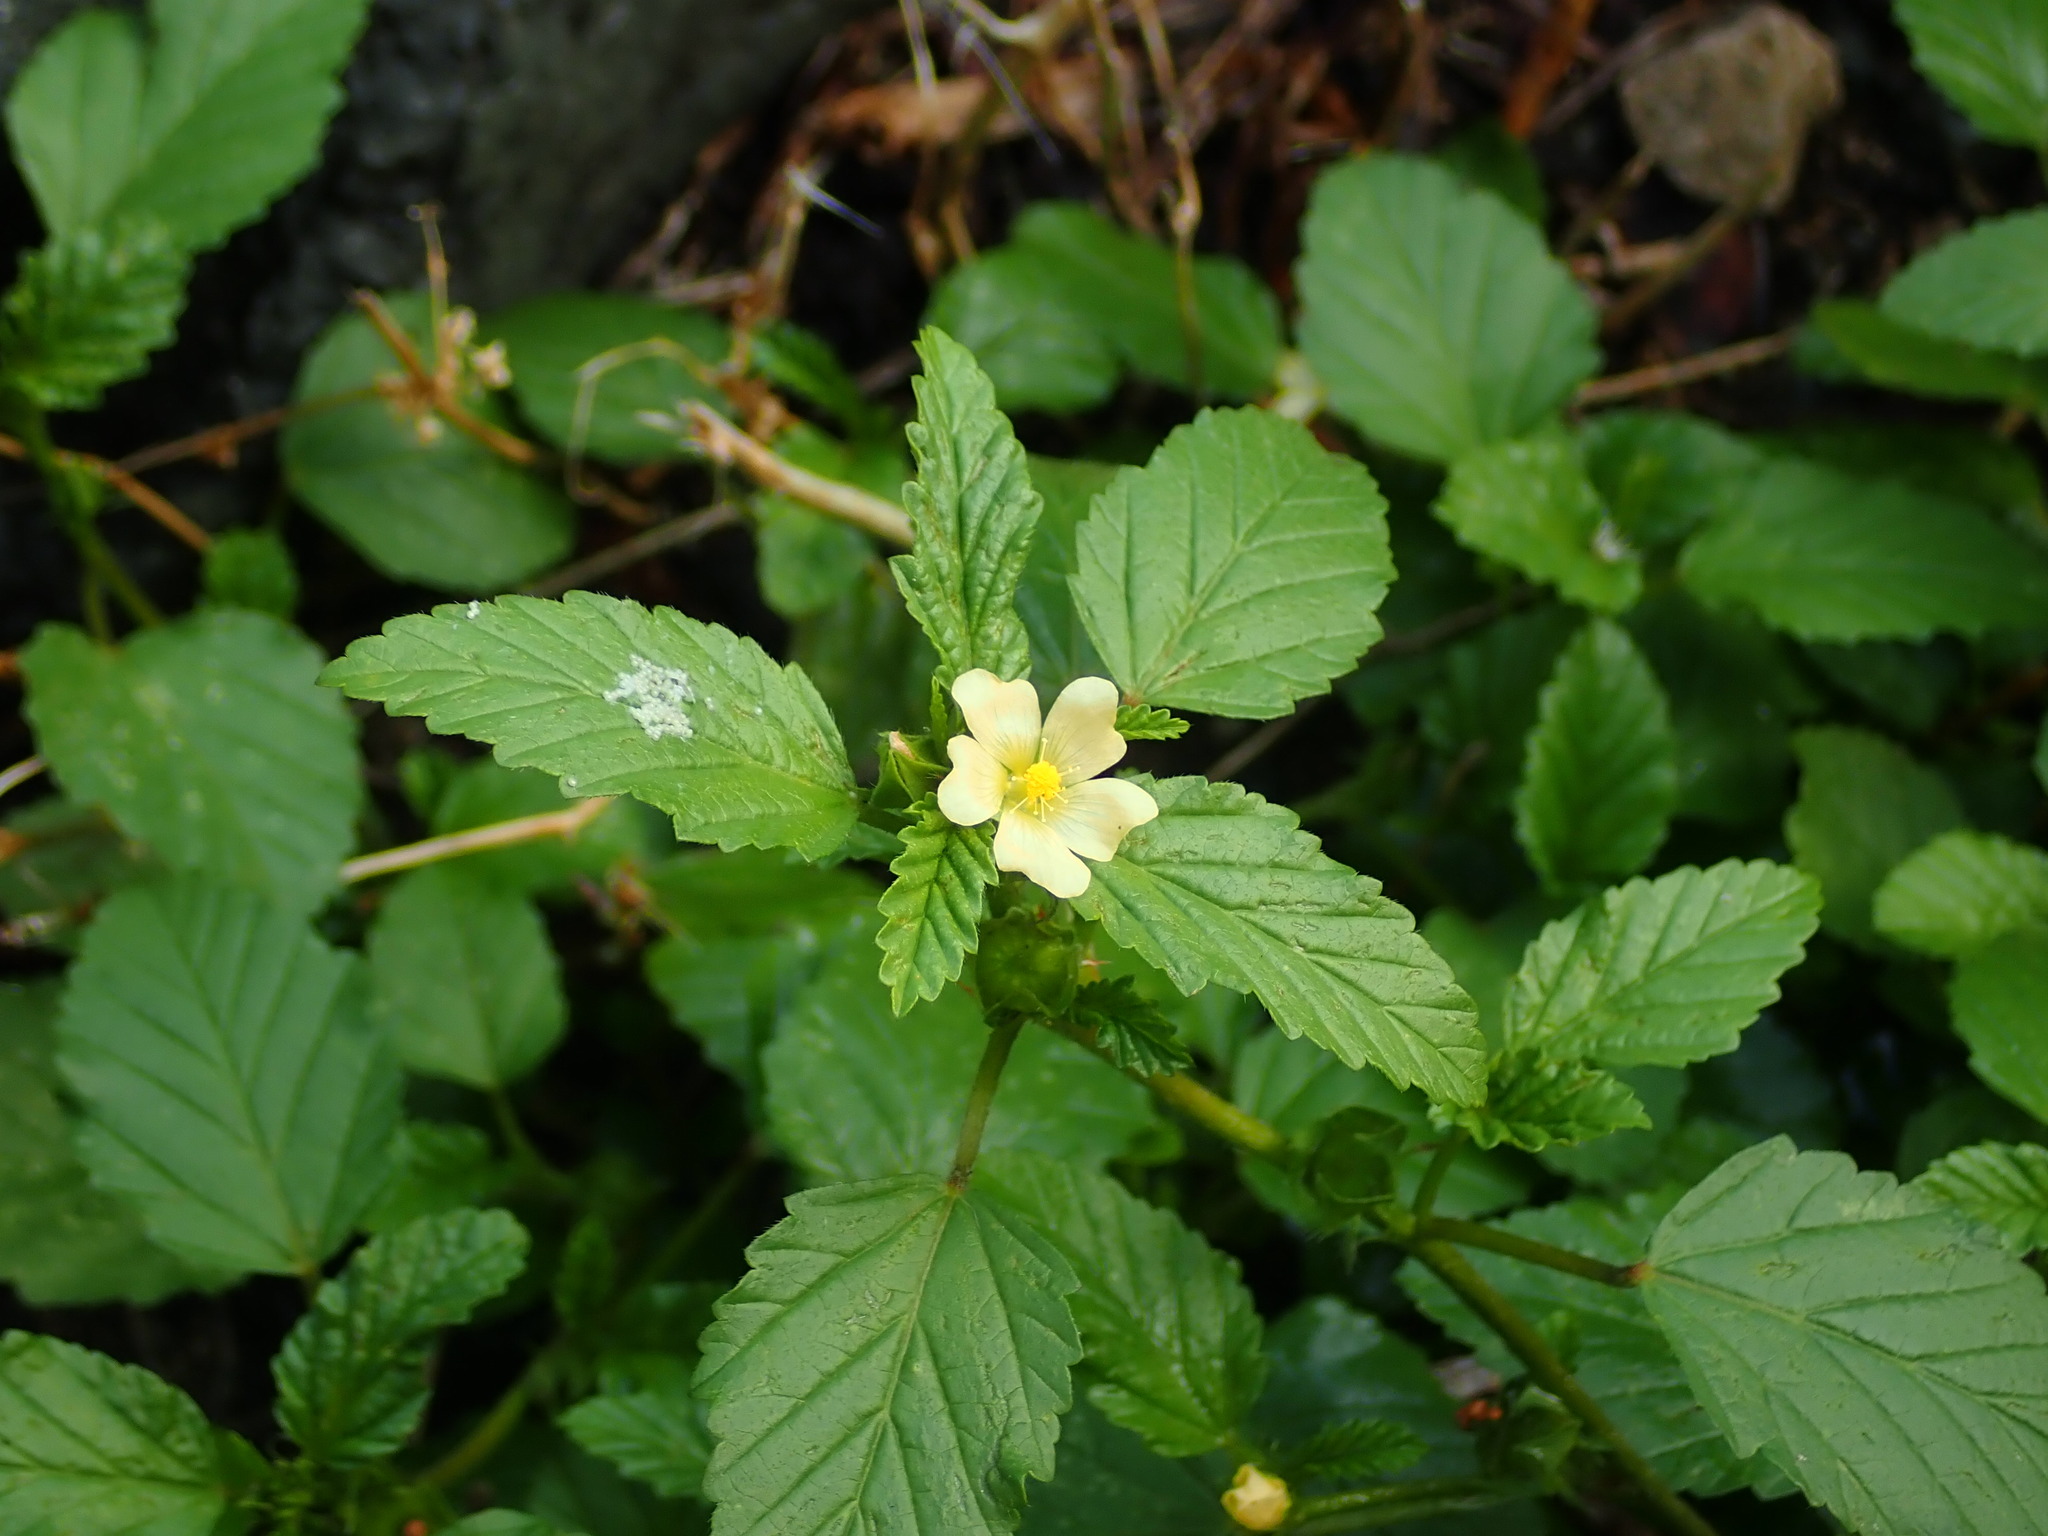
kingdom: Plantae
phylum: Tracheophyta
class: Magnoliopsida
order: Malvales
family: Malvaceae
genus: Malvastrum
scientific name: Malvastrum coromandelianum
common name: Threelobe false mallow
